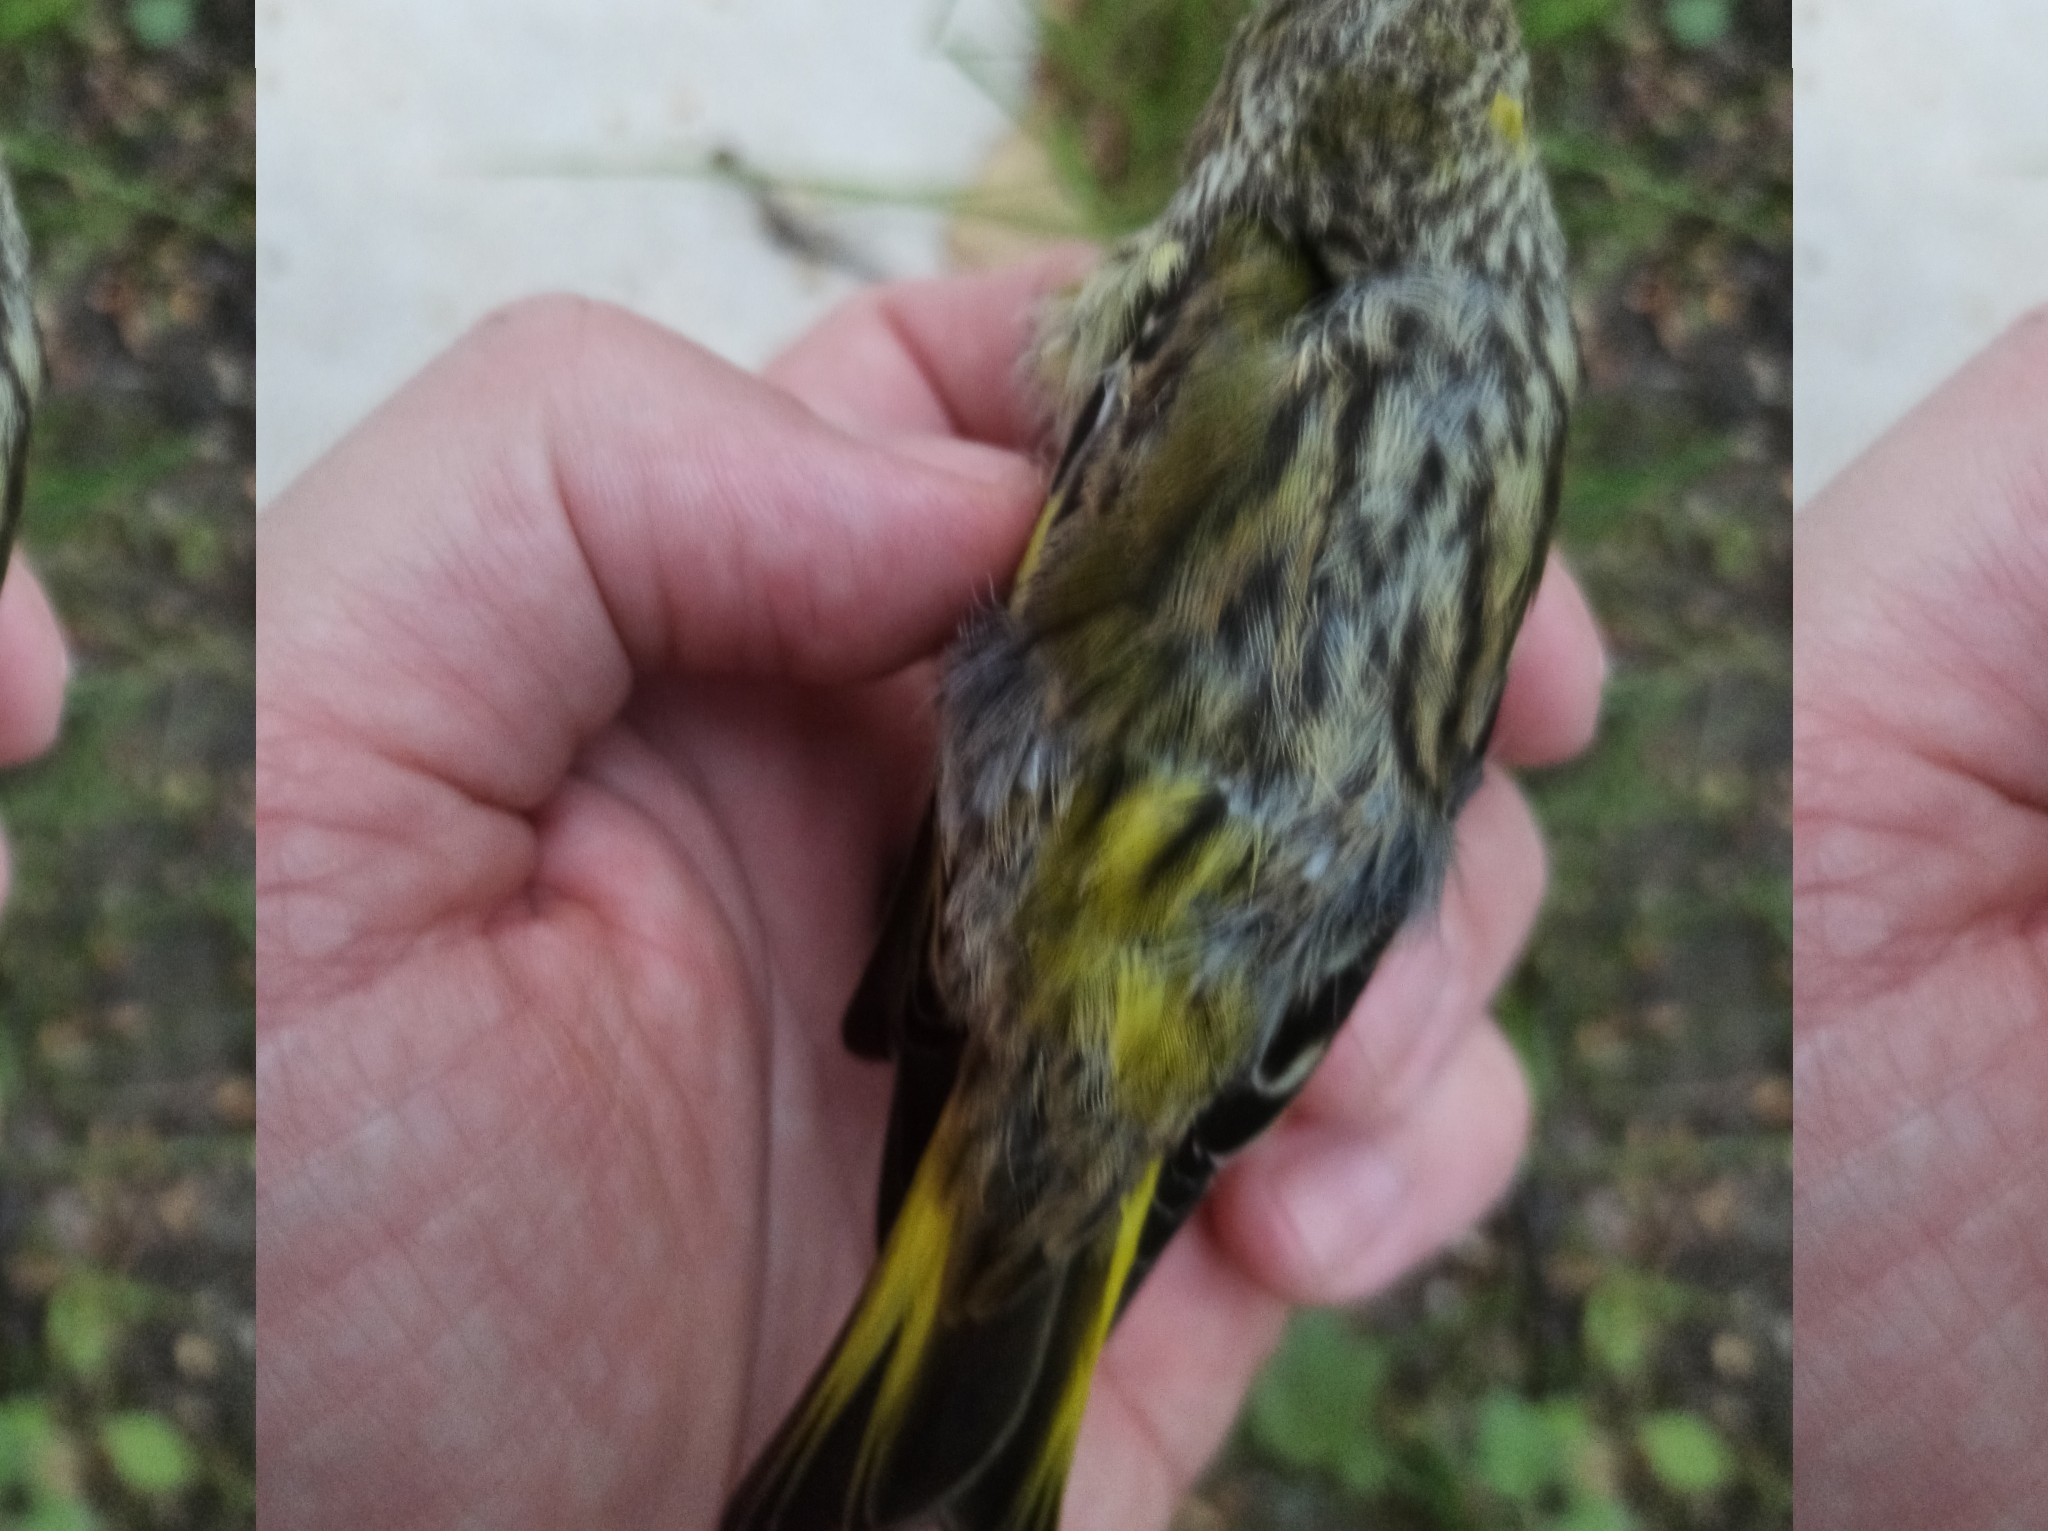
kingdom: Animalia
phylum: Chordata
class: Aves
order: Passeriformes
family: Fringillidae
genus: Spinus
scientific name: Spinus spinus
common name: Eurasian siskin
